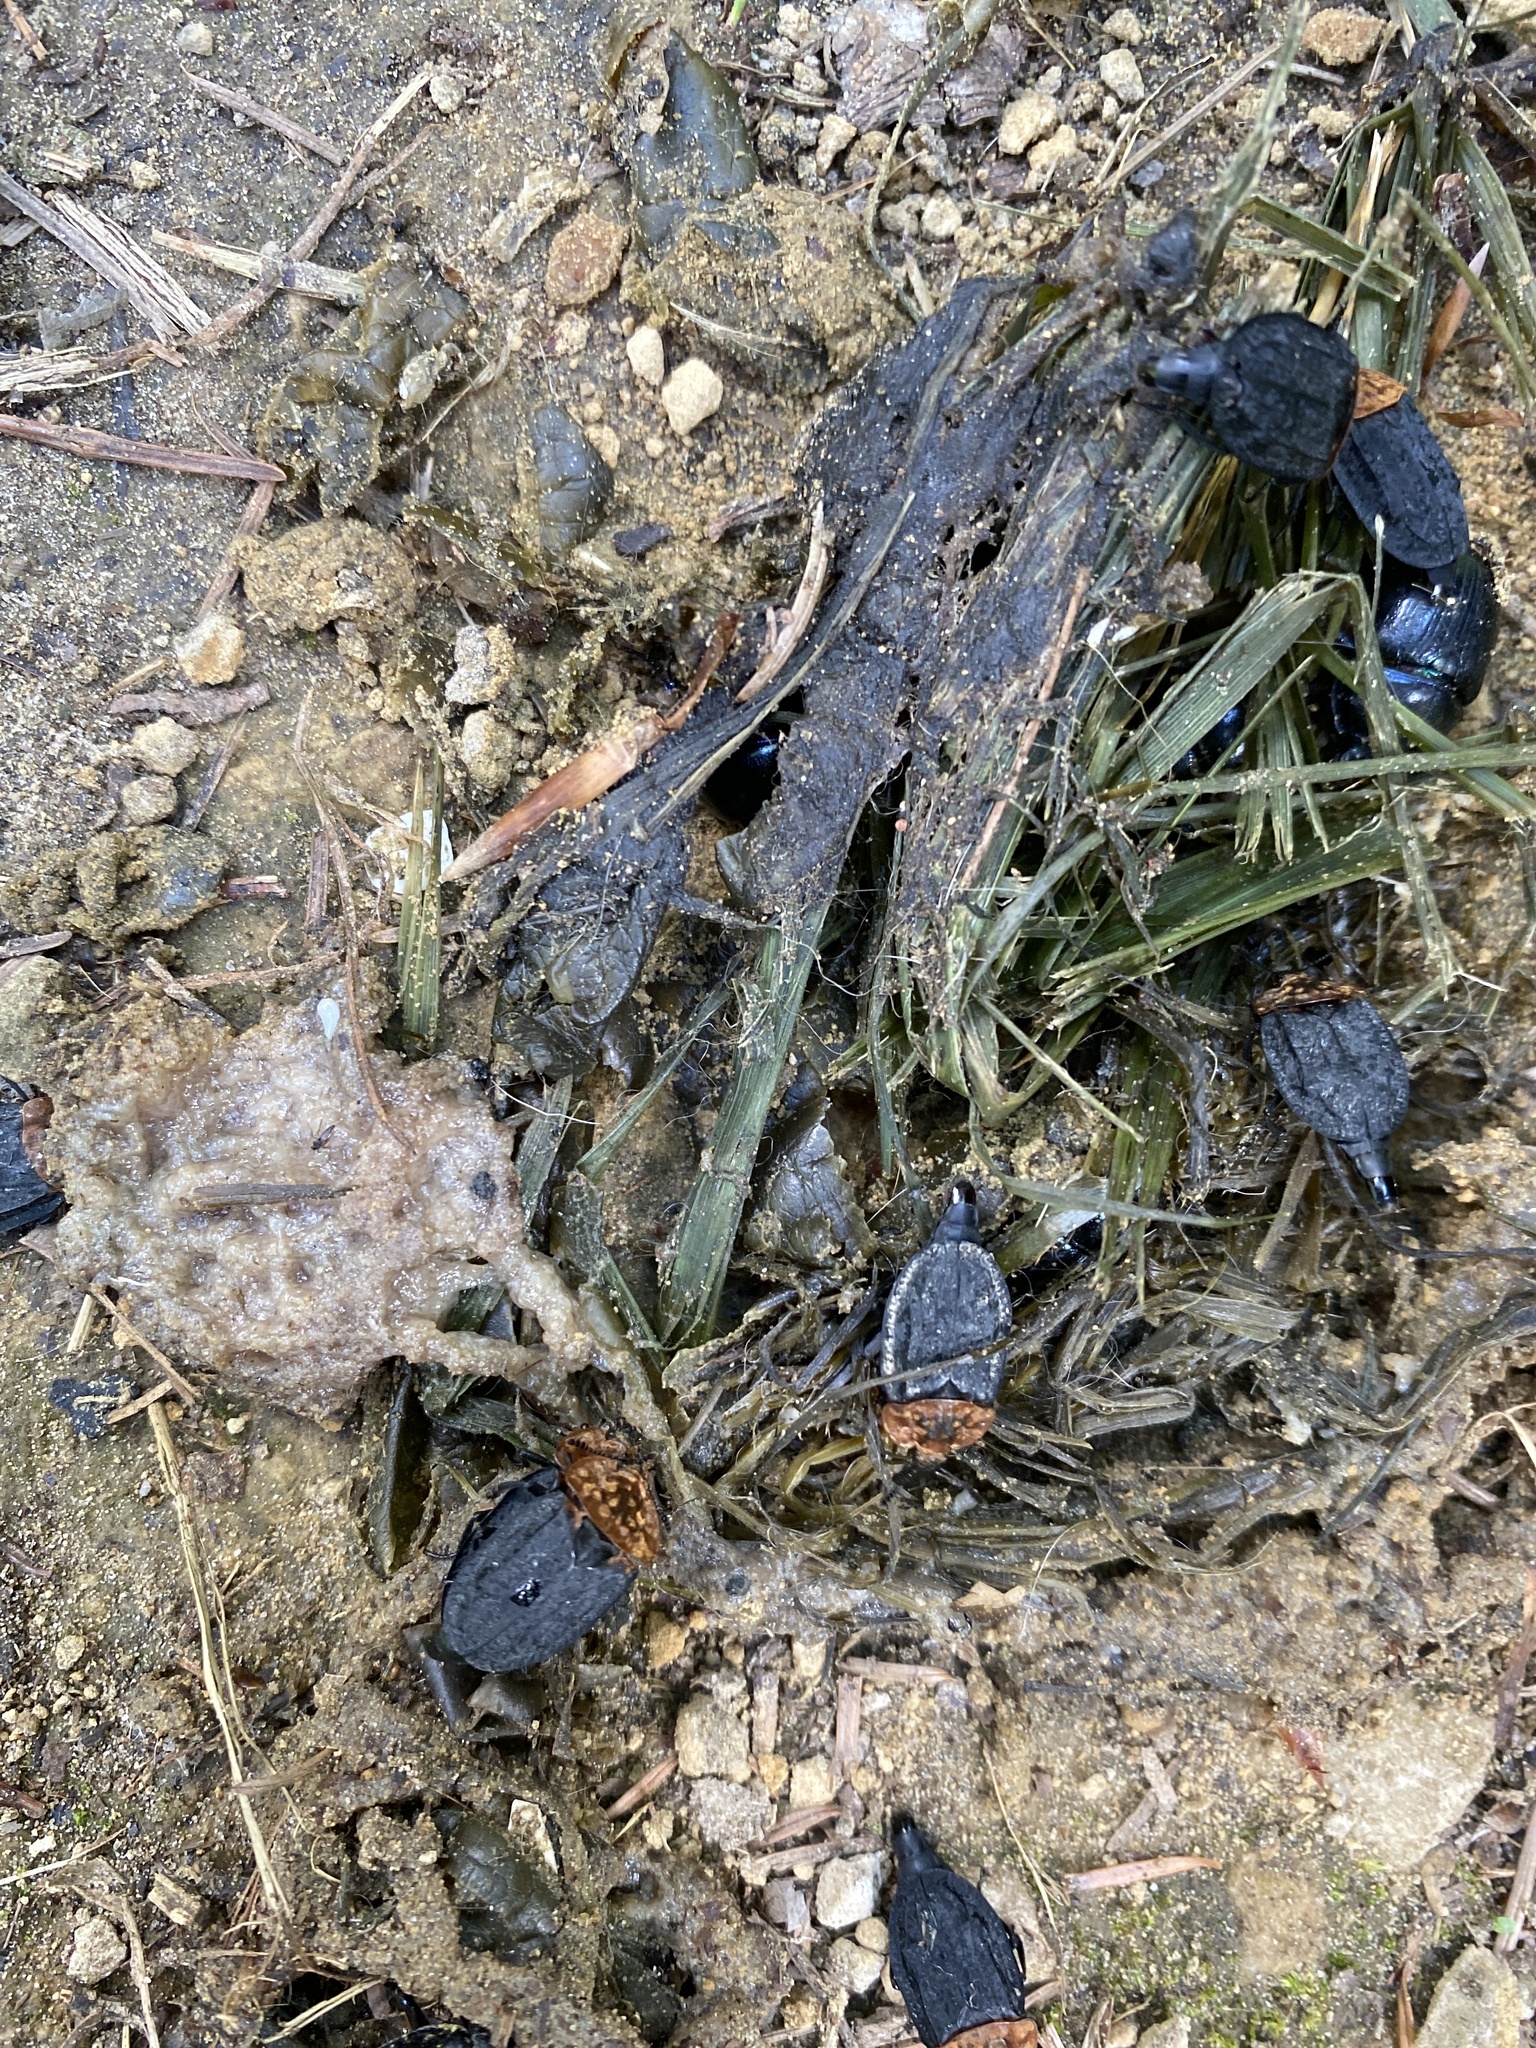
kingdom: Animalia
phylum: Arthropoda
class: Insecta
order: Coleoptera
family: Staphylinidae
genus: Oiceoptoma
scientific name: Oiceoptoma thoracicum
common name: Red-breasted carrion beetle
